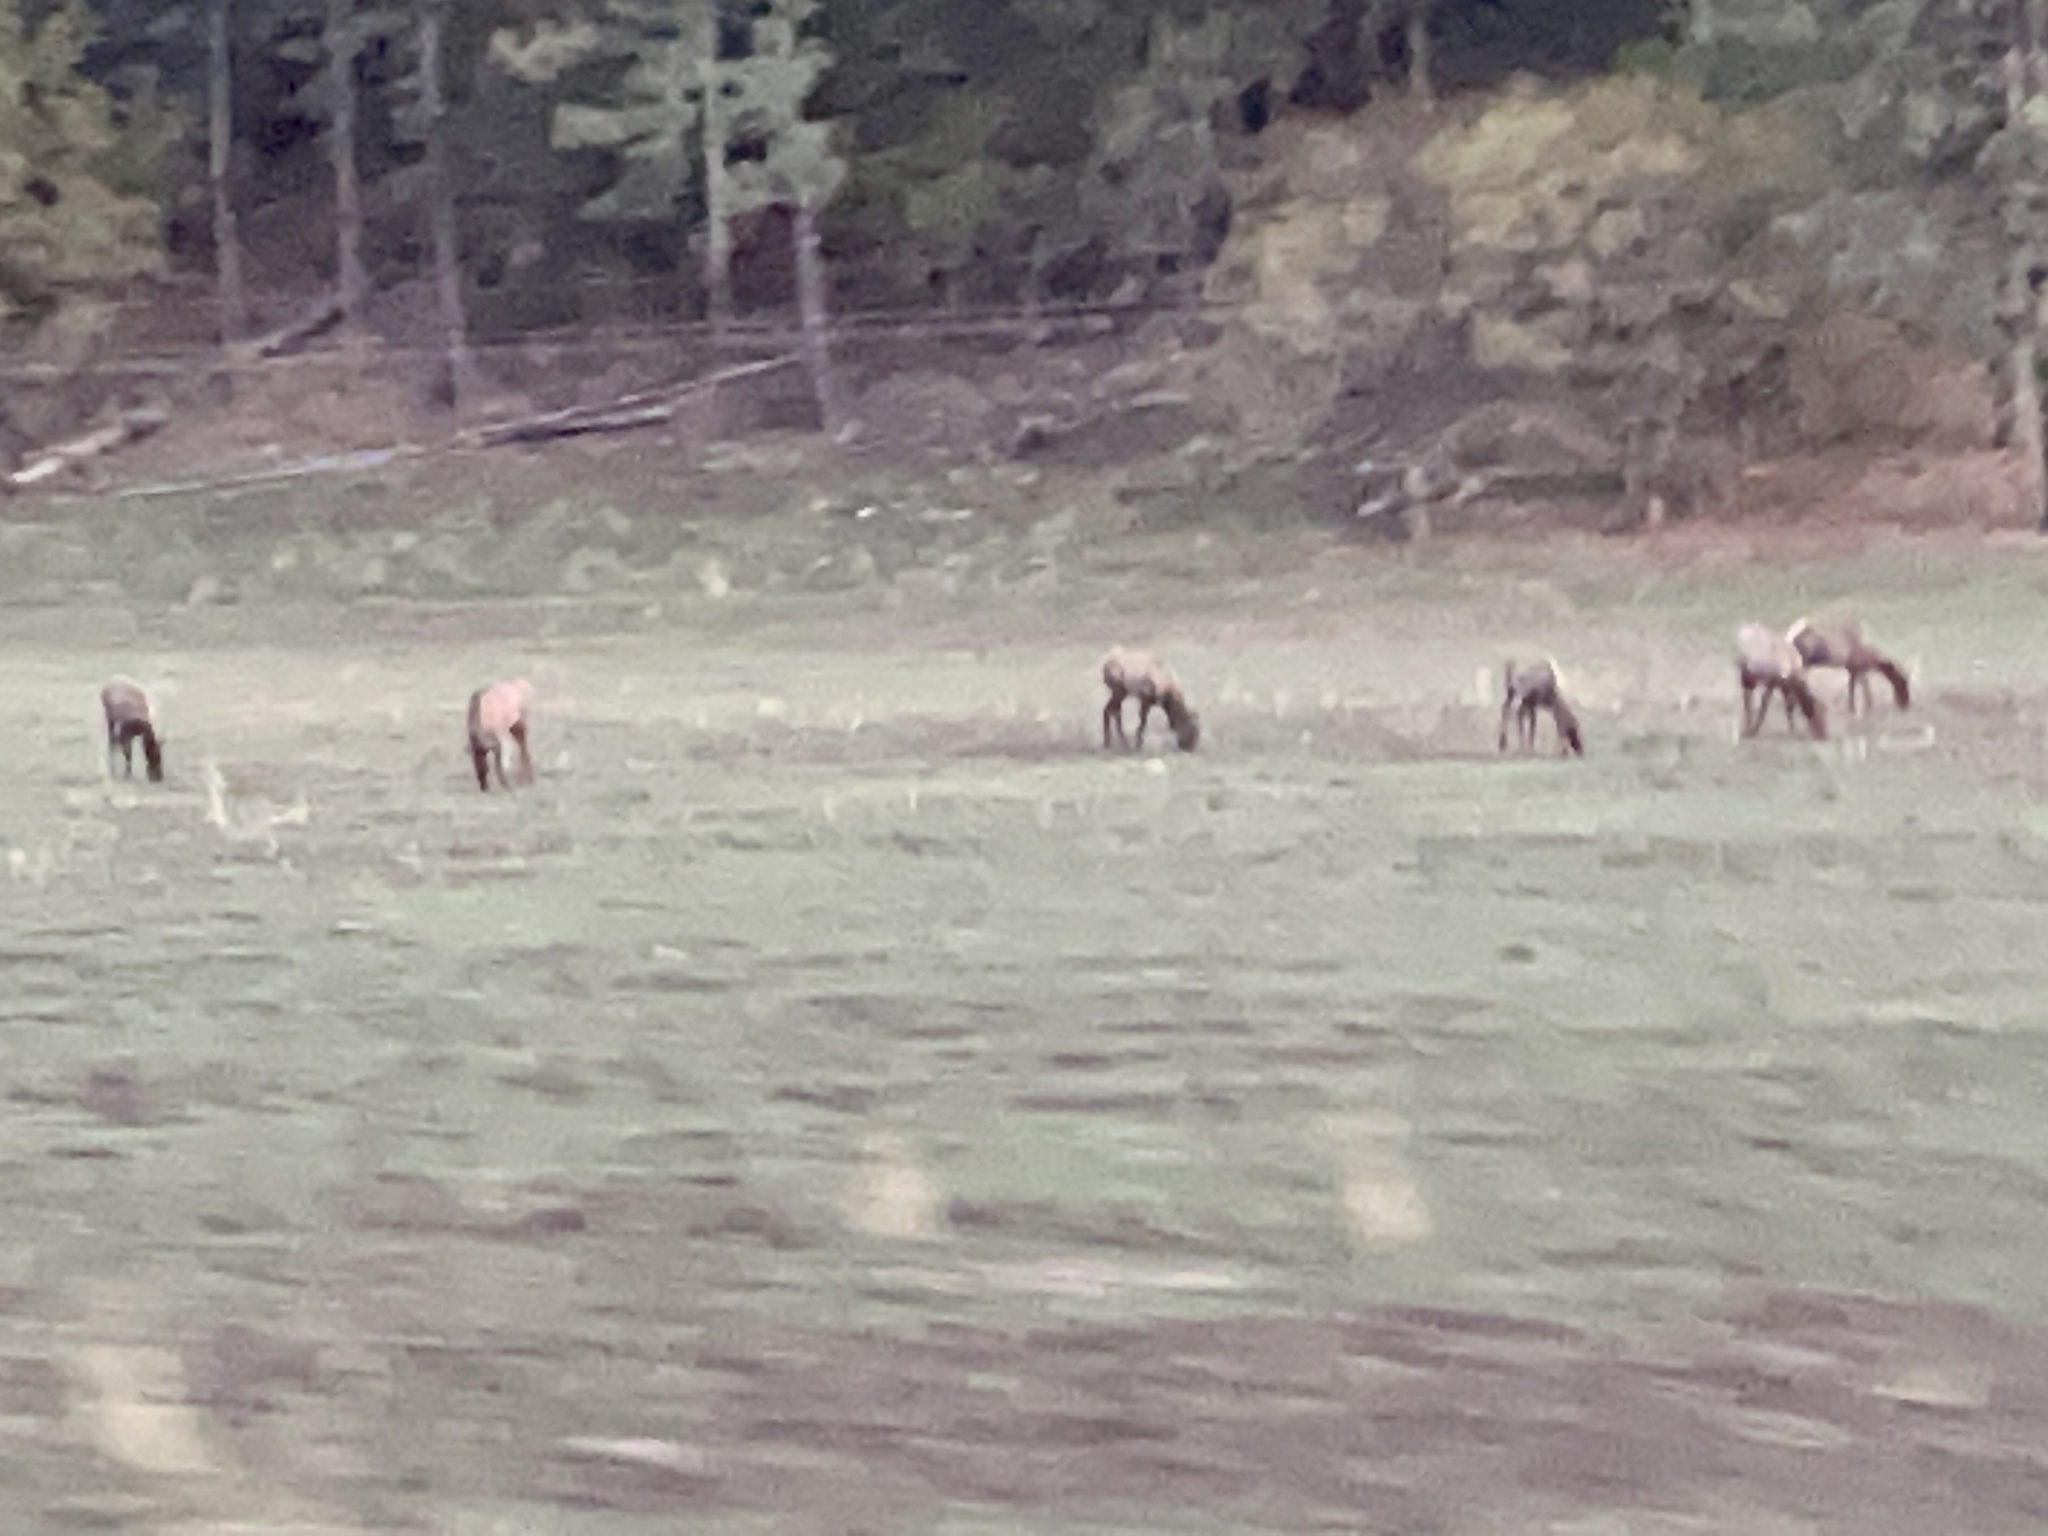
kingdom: Animalia
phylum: Chordata
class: Mammalia
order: Artiodactyla
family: Cervidae
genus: Cervus
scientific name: Cervus elaphus
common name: Red deer
